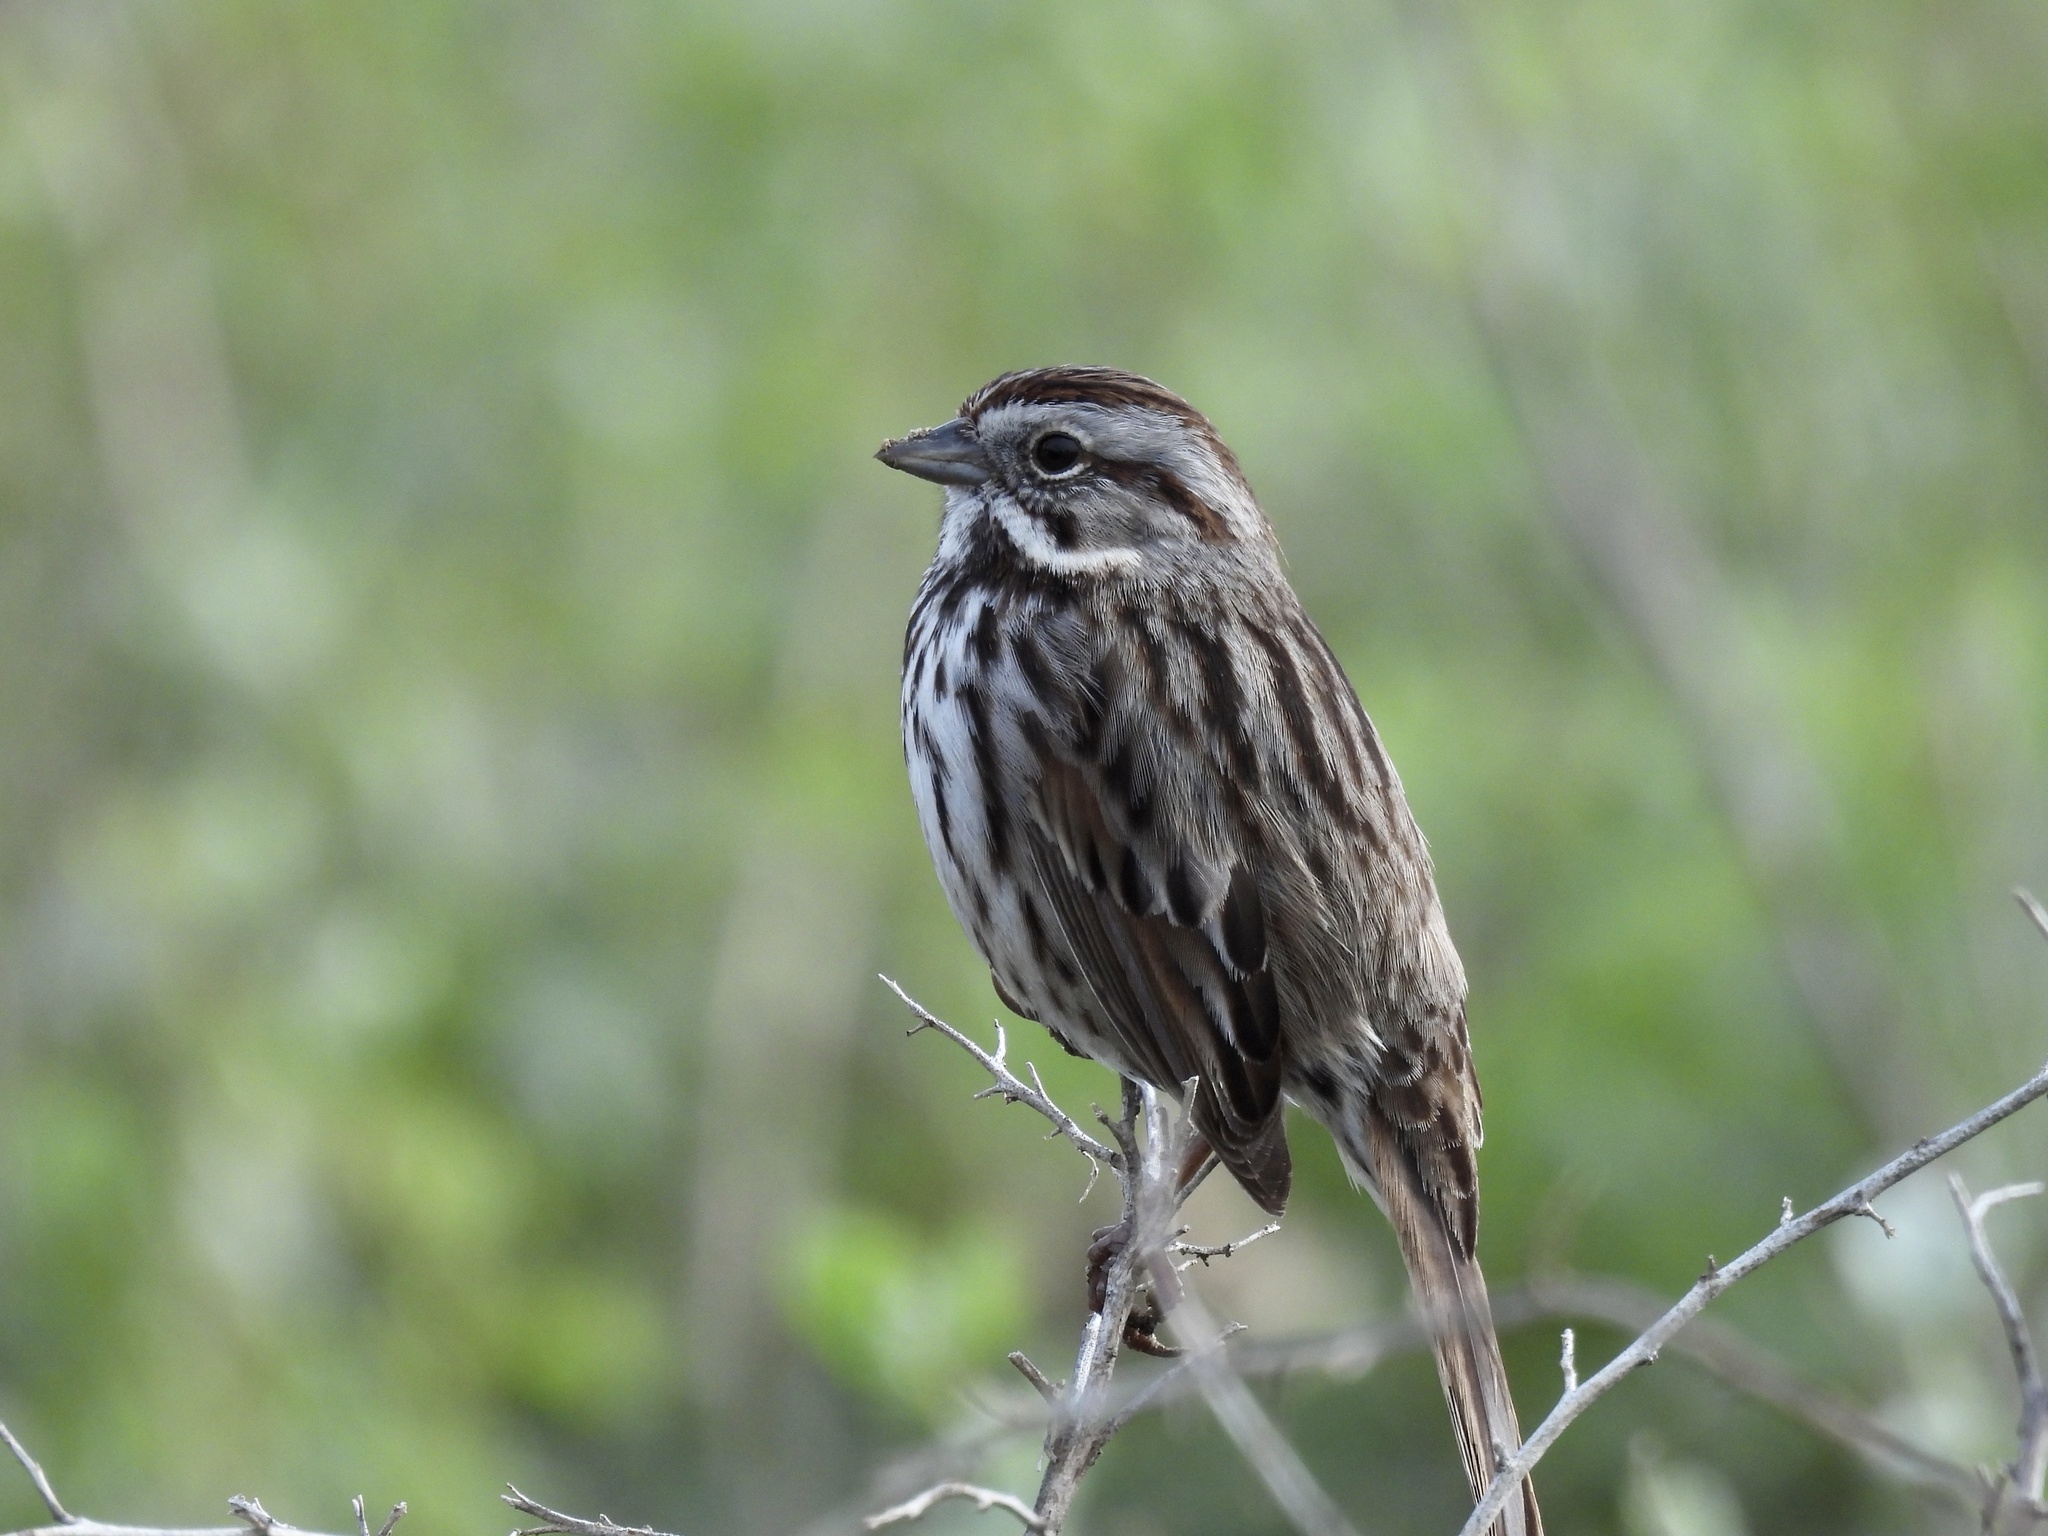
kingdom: Animalia
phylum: Chordata
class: Aves
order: Passeriformes
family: Passerellidae
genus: Melospiza
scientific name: Melospiza melodia
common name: Song sparrow
